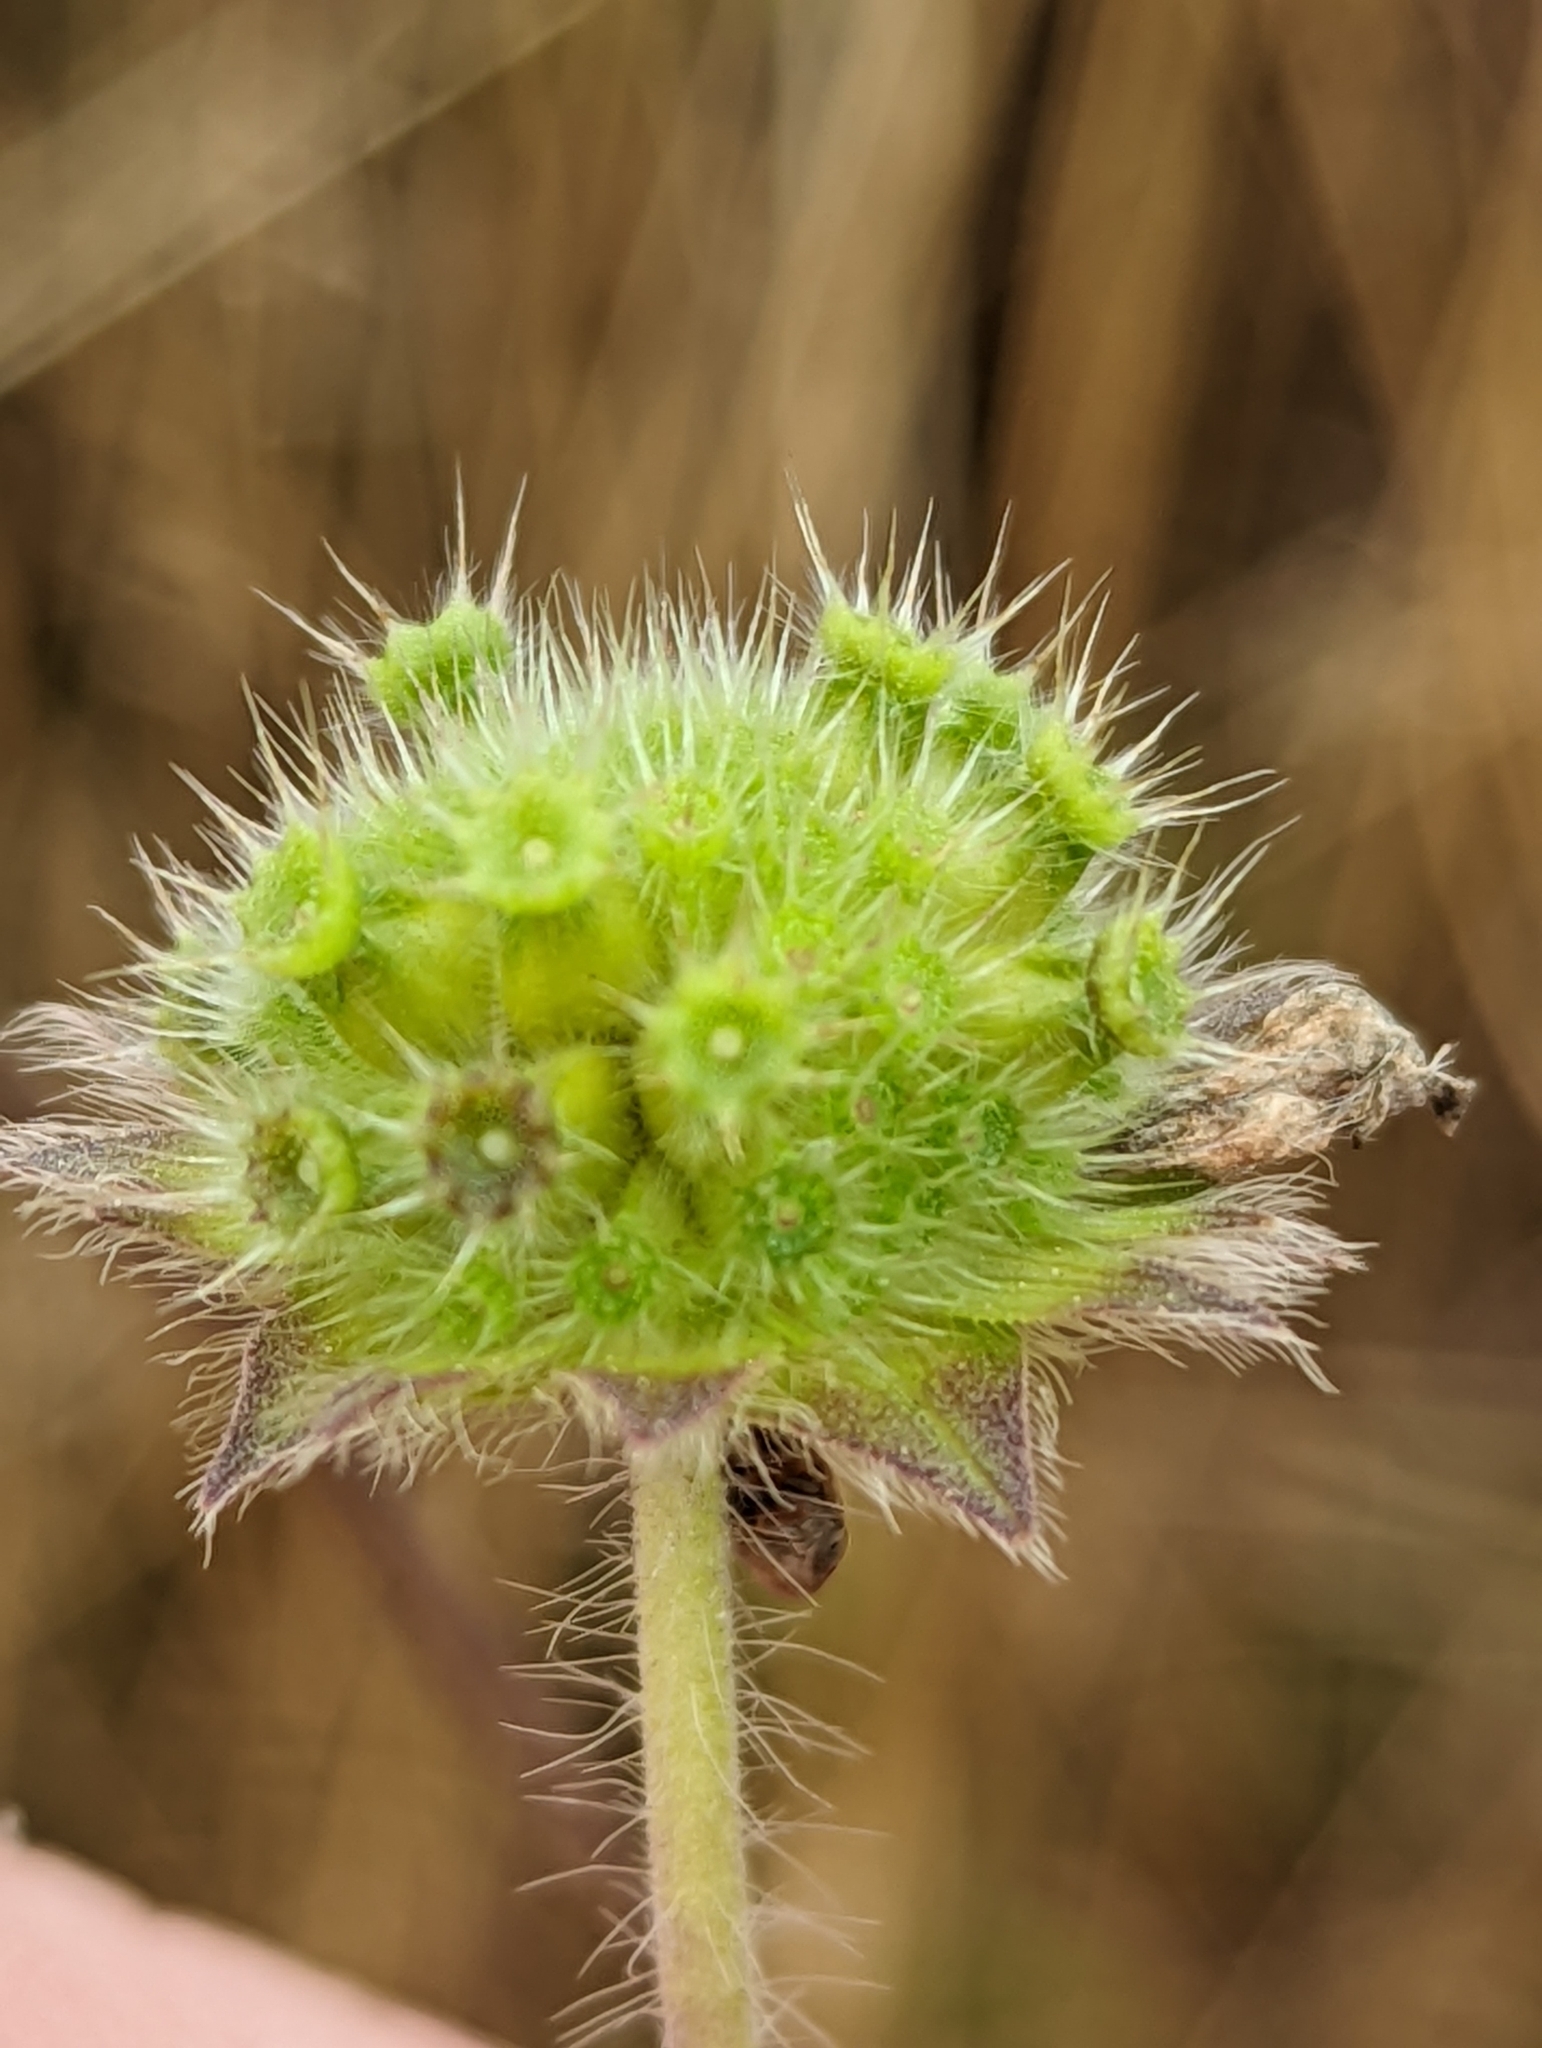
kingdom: Plantae
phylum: Tracheophyta
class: Magnoliopsida
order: Dipsacales
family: Caprifoliaceae
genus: Knautia
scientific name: Knautia arvensis
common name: Field scabiosa
